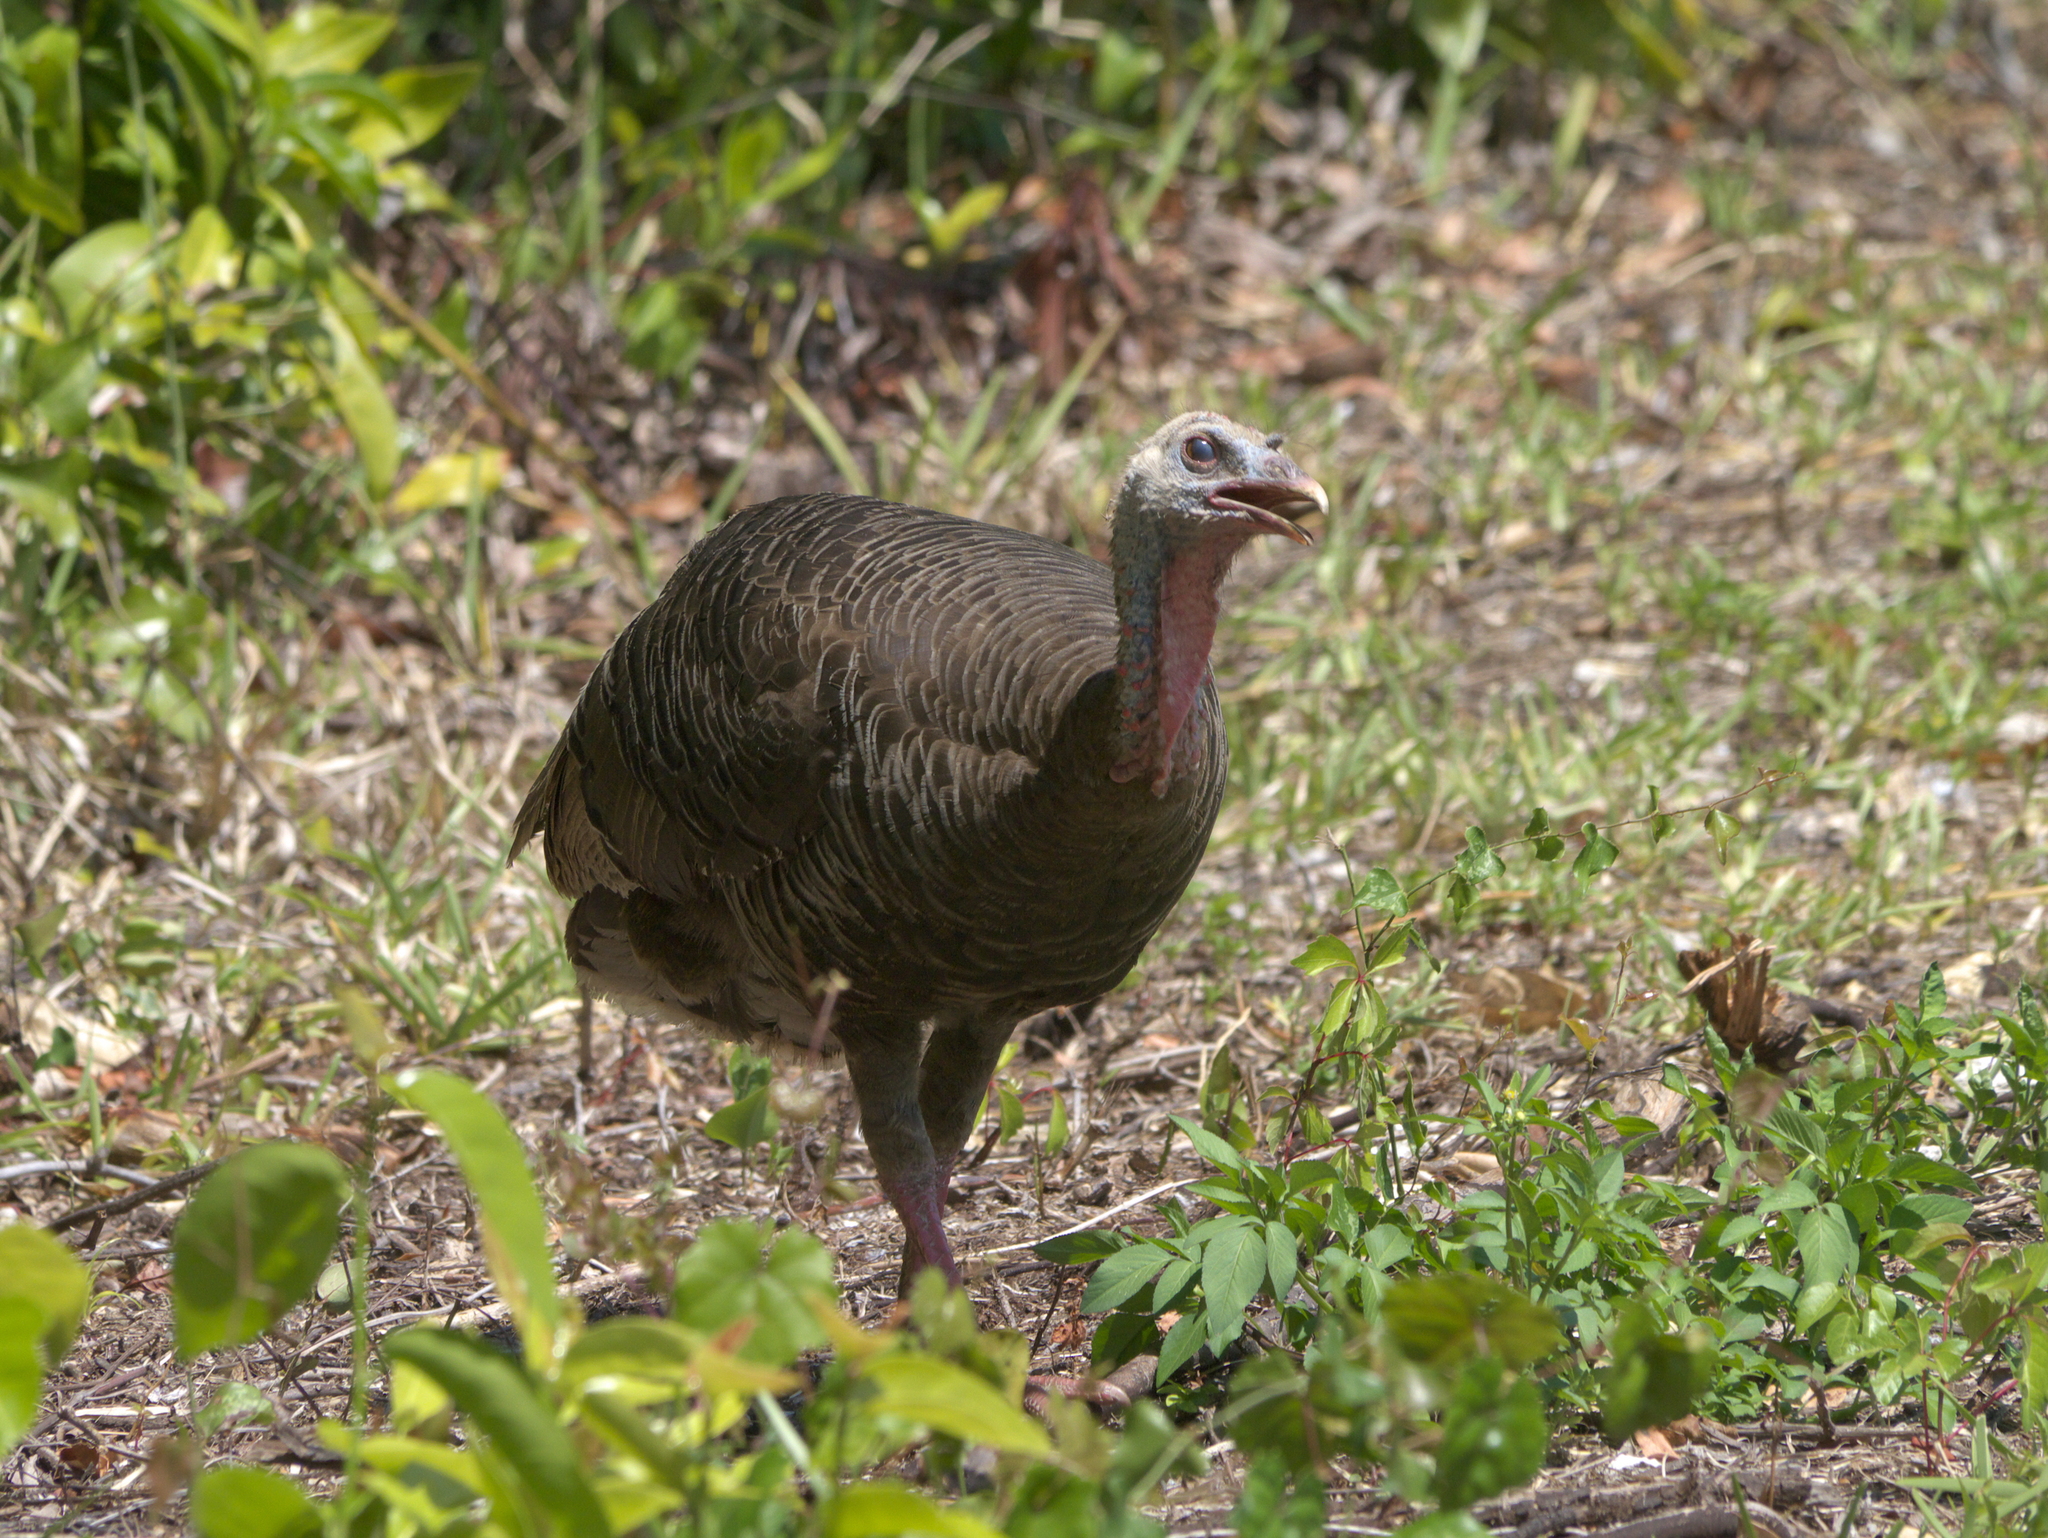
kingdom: Animalia
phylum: Chordata
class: Aves
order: Galliformes
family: Phasianidae
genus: Meleagris
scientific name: Meleagris gallopavo
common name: Wild turkey
